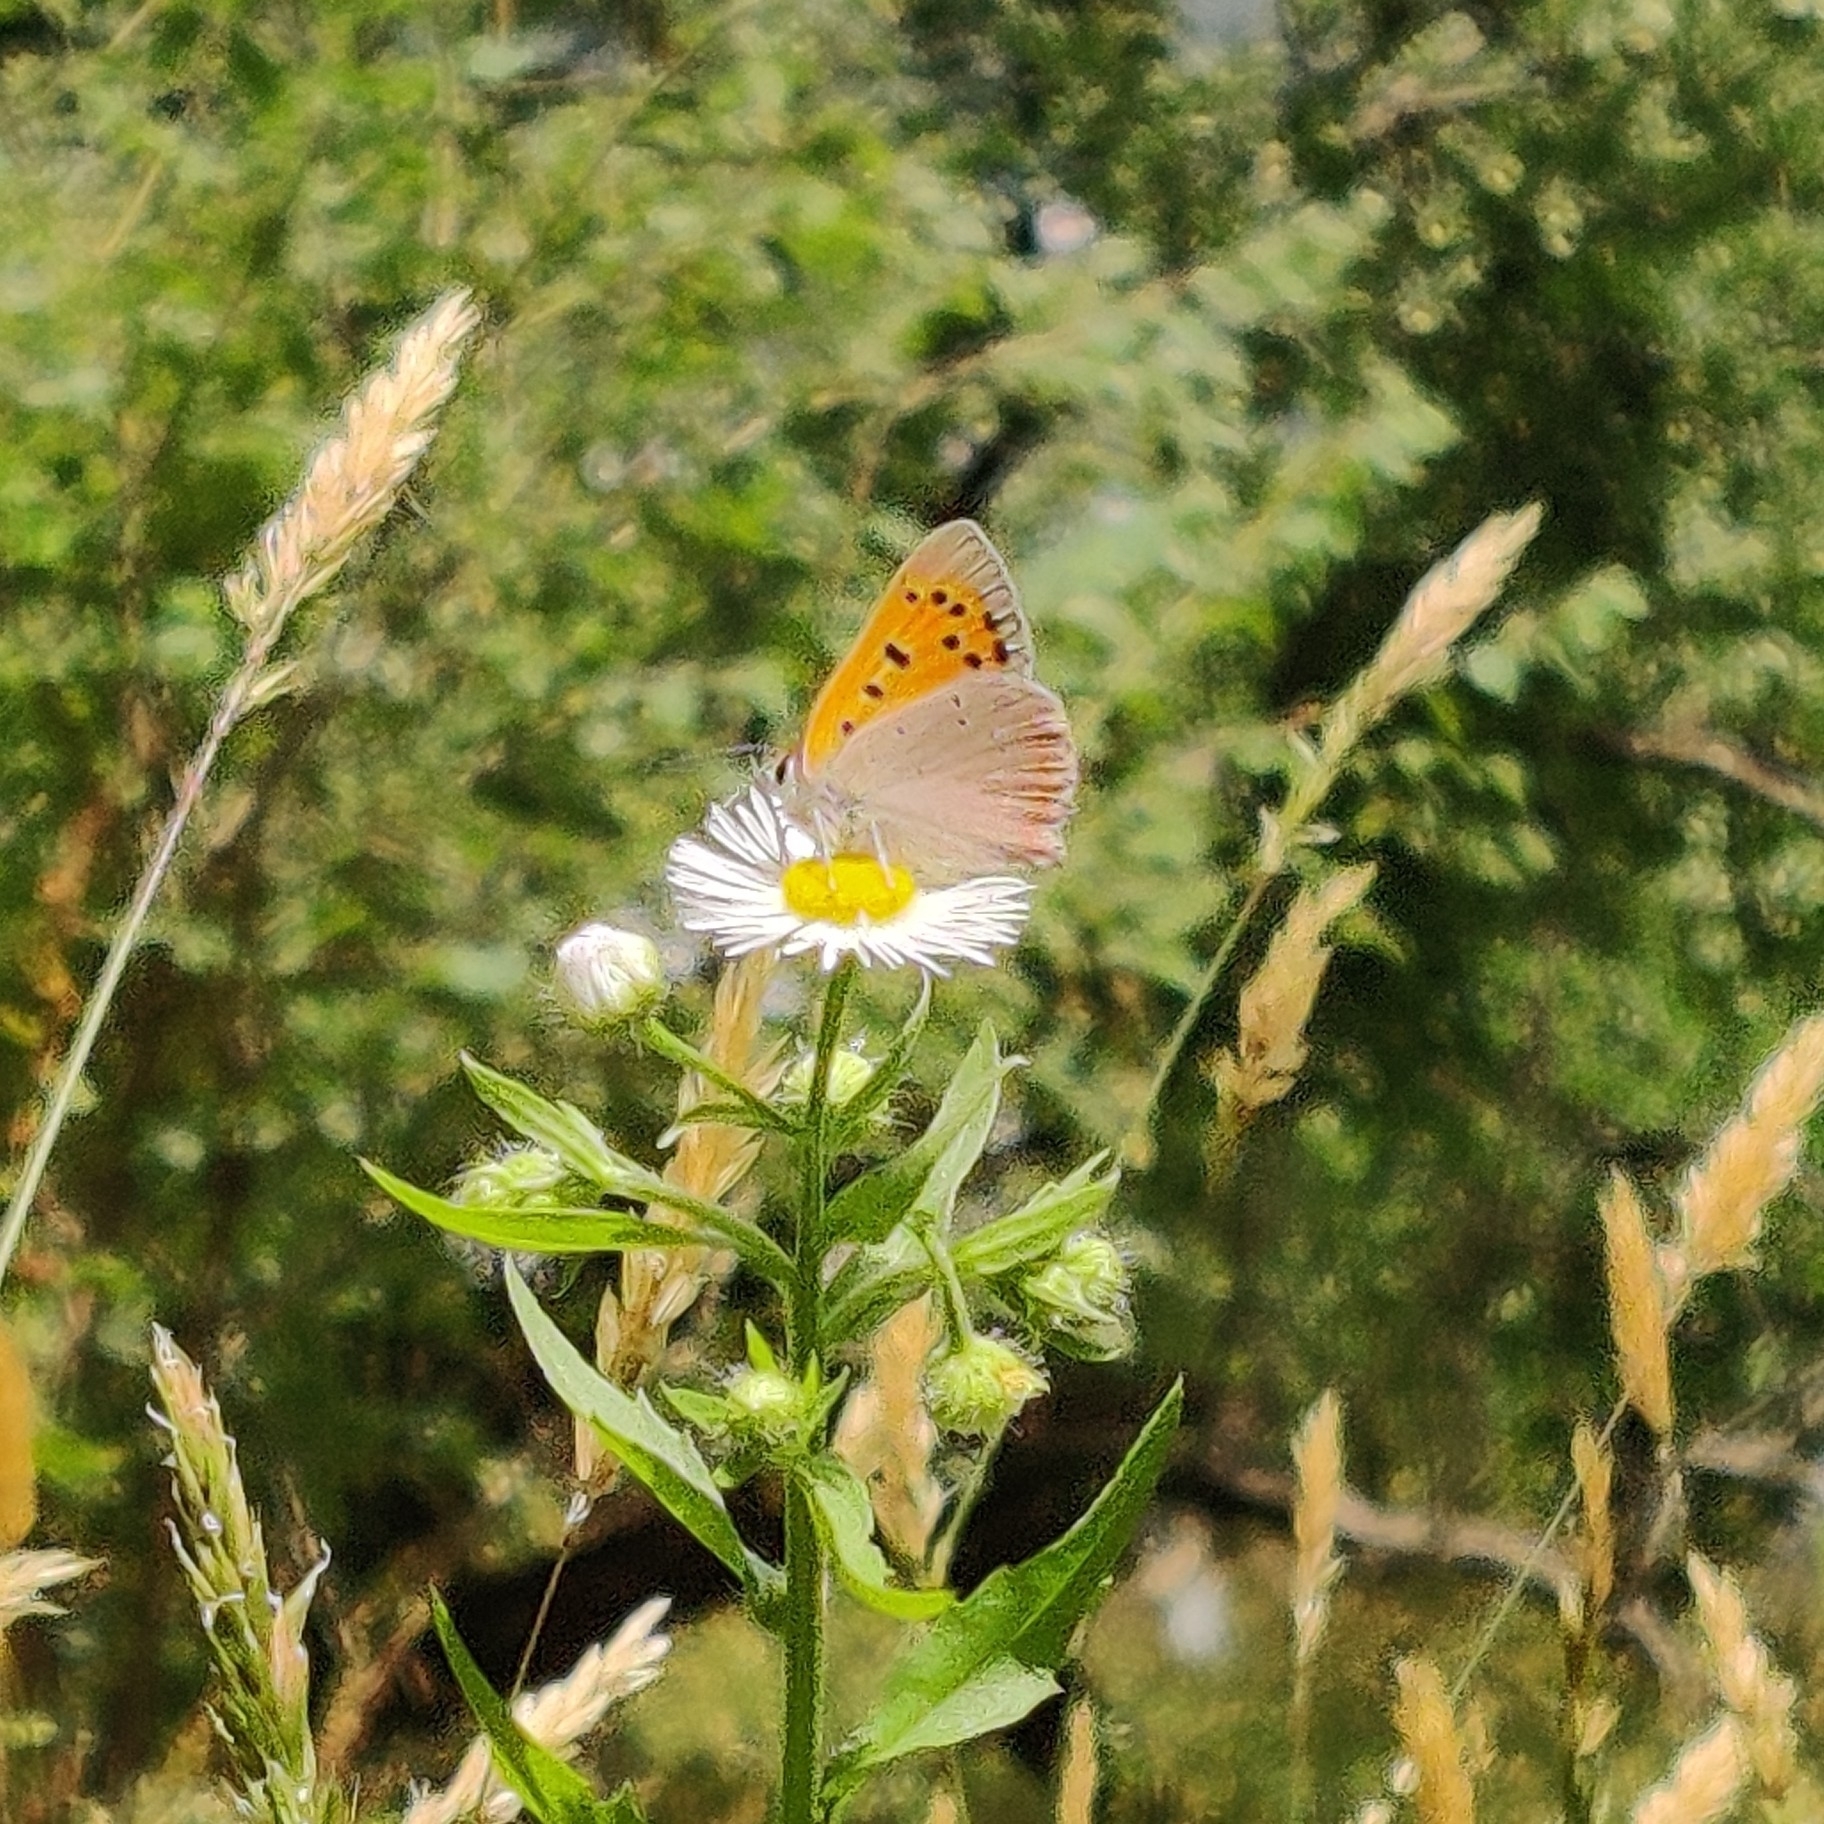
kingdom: Animalia
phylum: Arthropoda
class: Insecta
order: Lepidoptera
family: Lycaenidae
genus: Lycaena
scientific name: Lycaena phlaeas
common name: Small copper
